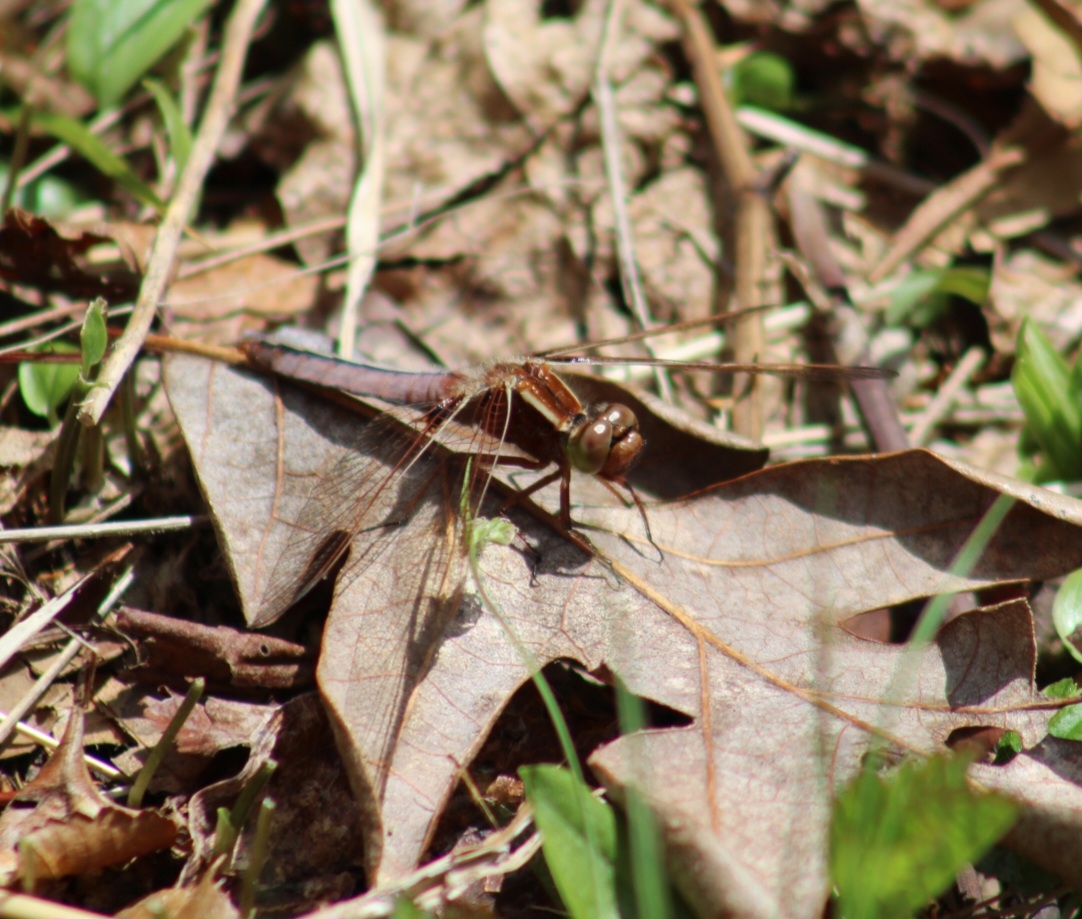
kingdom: Animalia
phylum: Arthropoda
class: Insecta
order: Odonata
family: Libellulidae
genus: Ladona
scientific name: Ladona exusta
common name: Libellule embrasée
